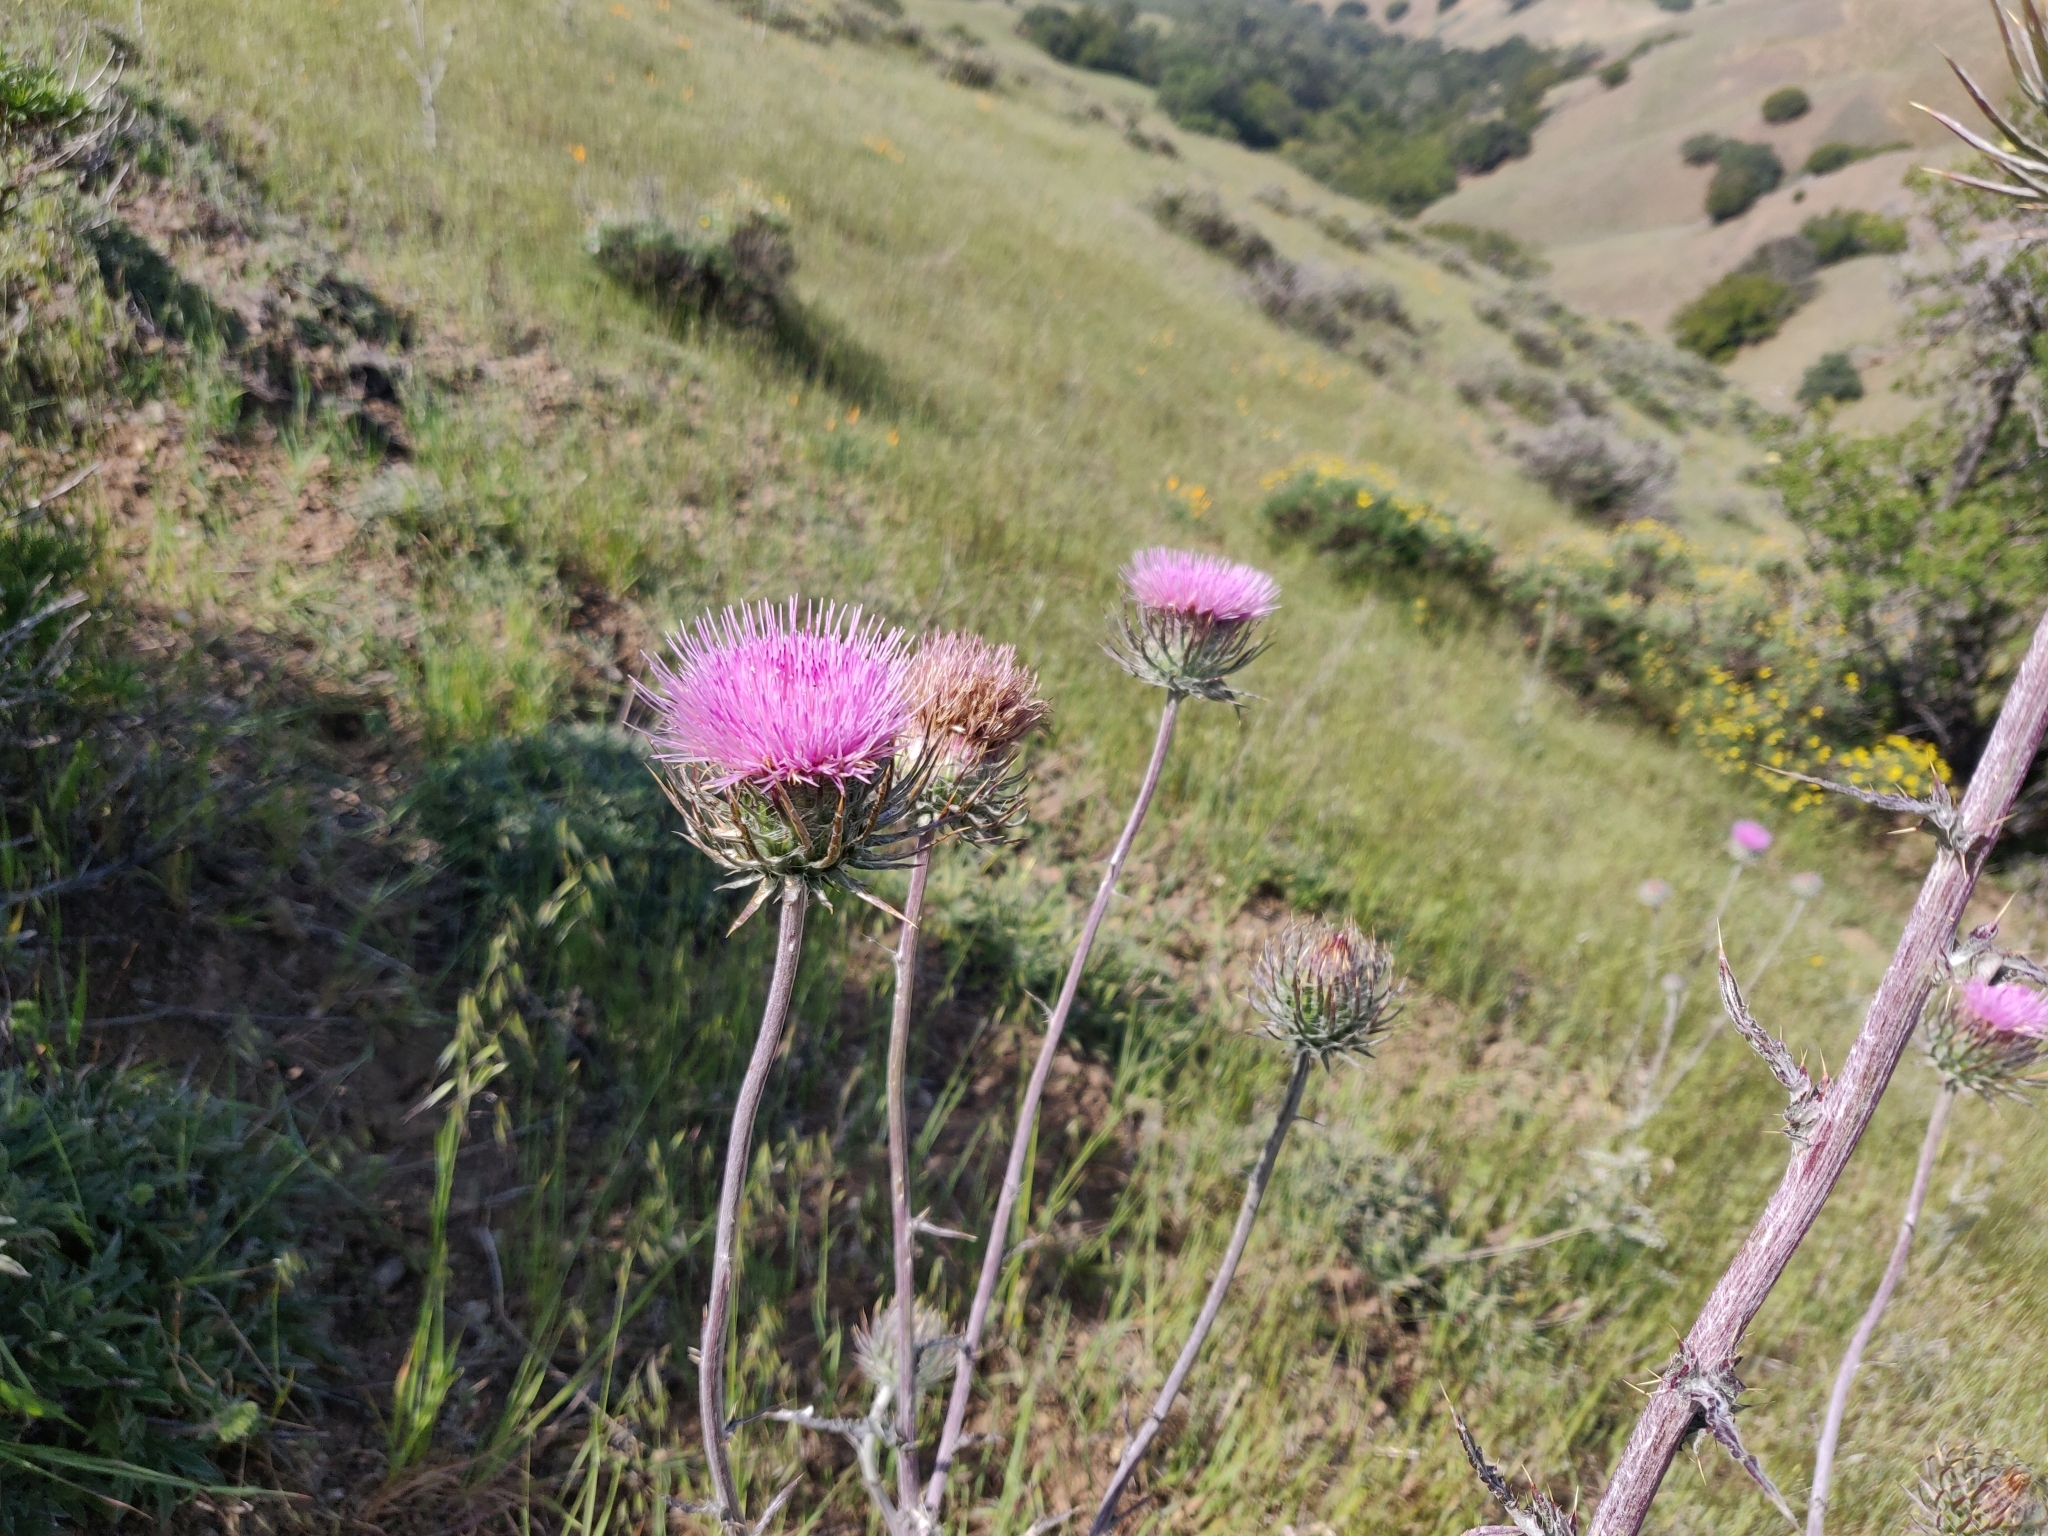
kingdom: Plantae
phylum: Tracheophyta
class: Magnoliopsida
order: Asterales
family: Asteraceae
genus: Cirsium
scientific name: Cirsium occidentale
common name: Western thistle
